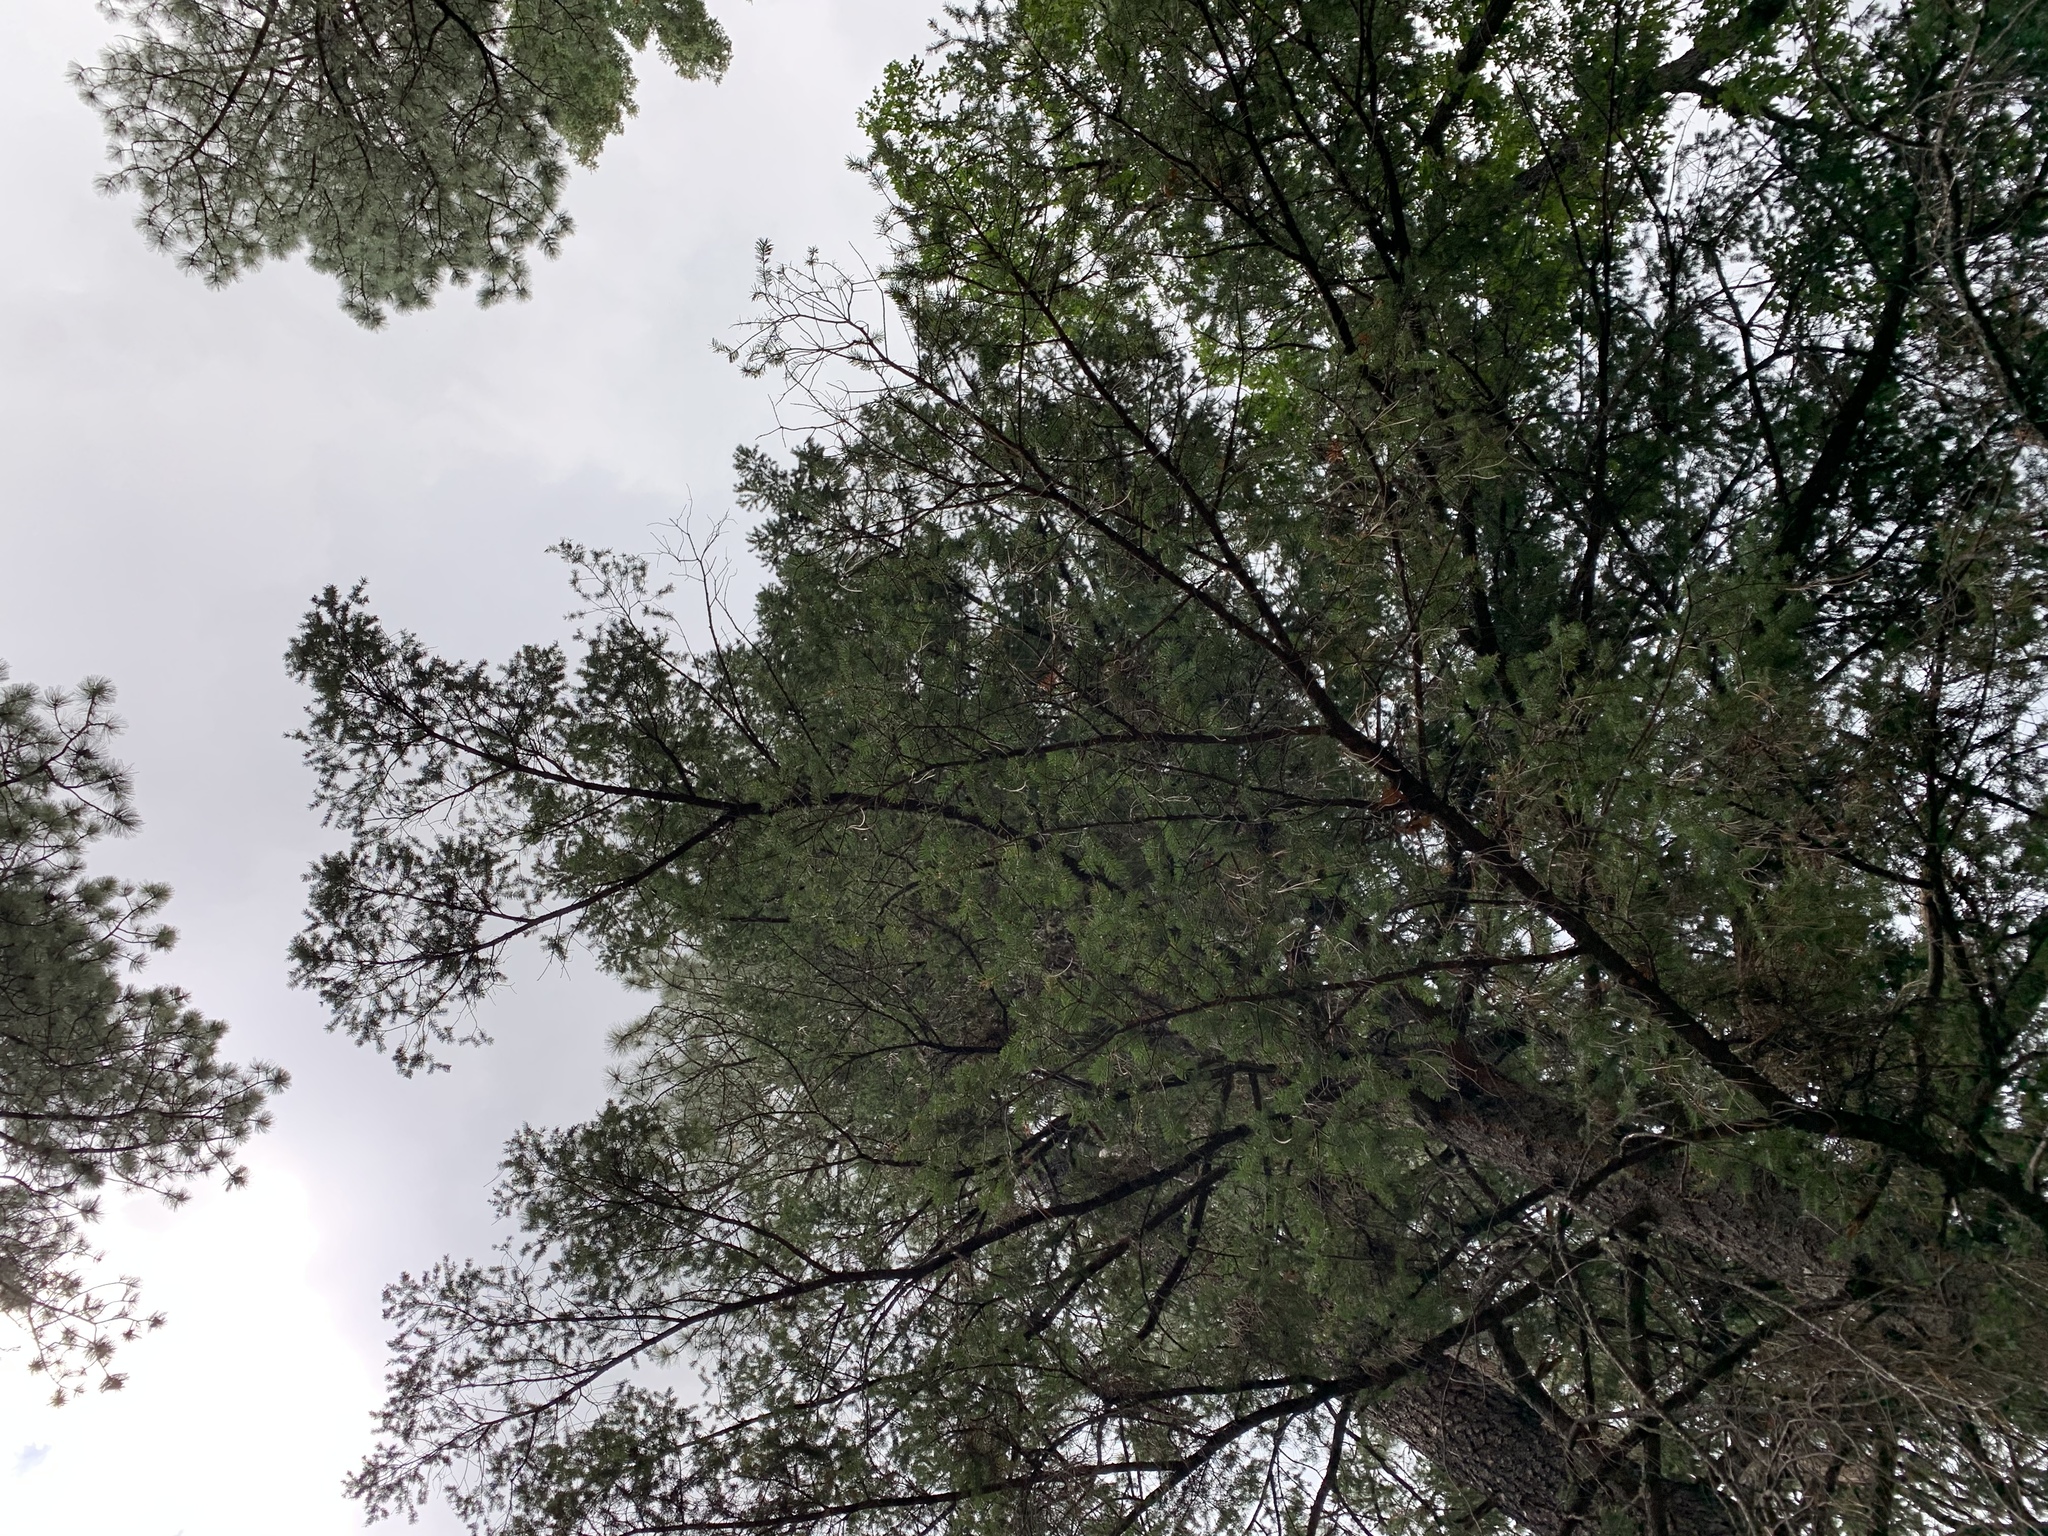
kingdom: Plantae
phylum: Tracheophyta
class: Pinopsida
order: Pinales
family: Pinaceae
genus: Pseudotsuga
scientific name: Pseudotsuga menziesii
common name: Douglas fir
